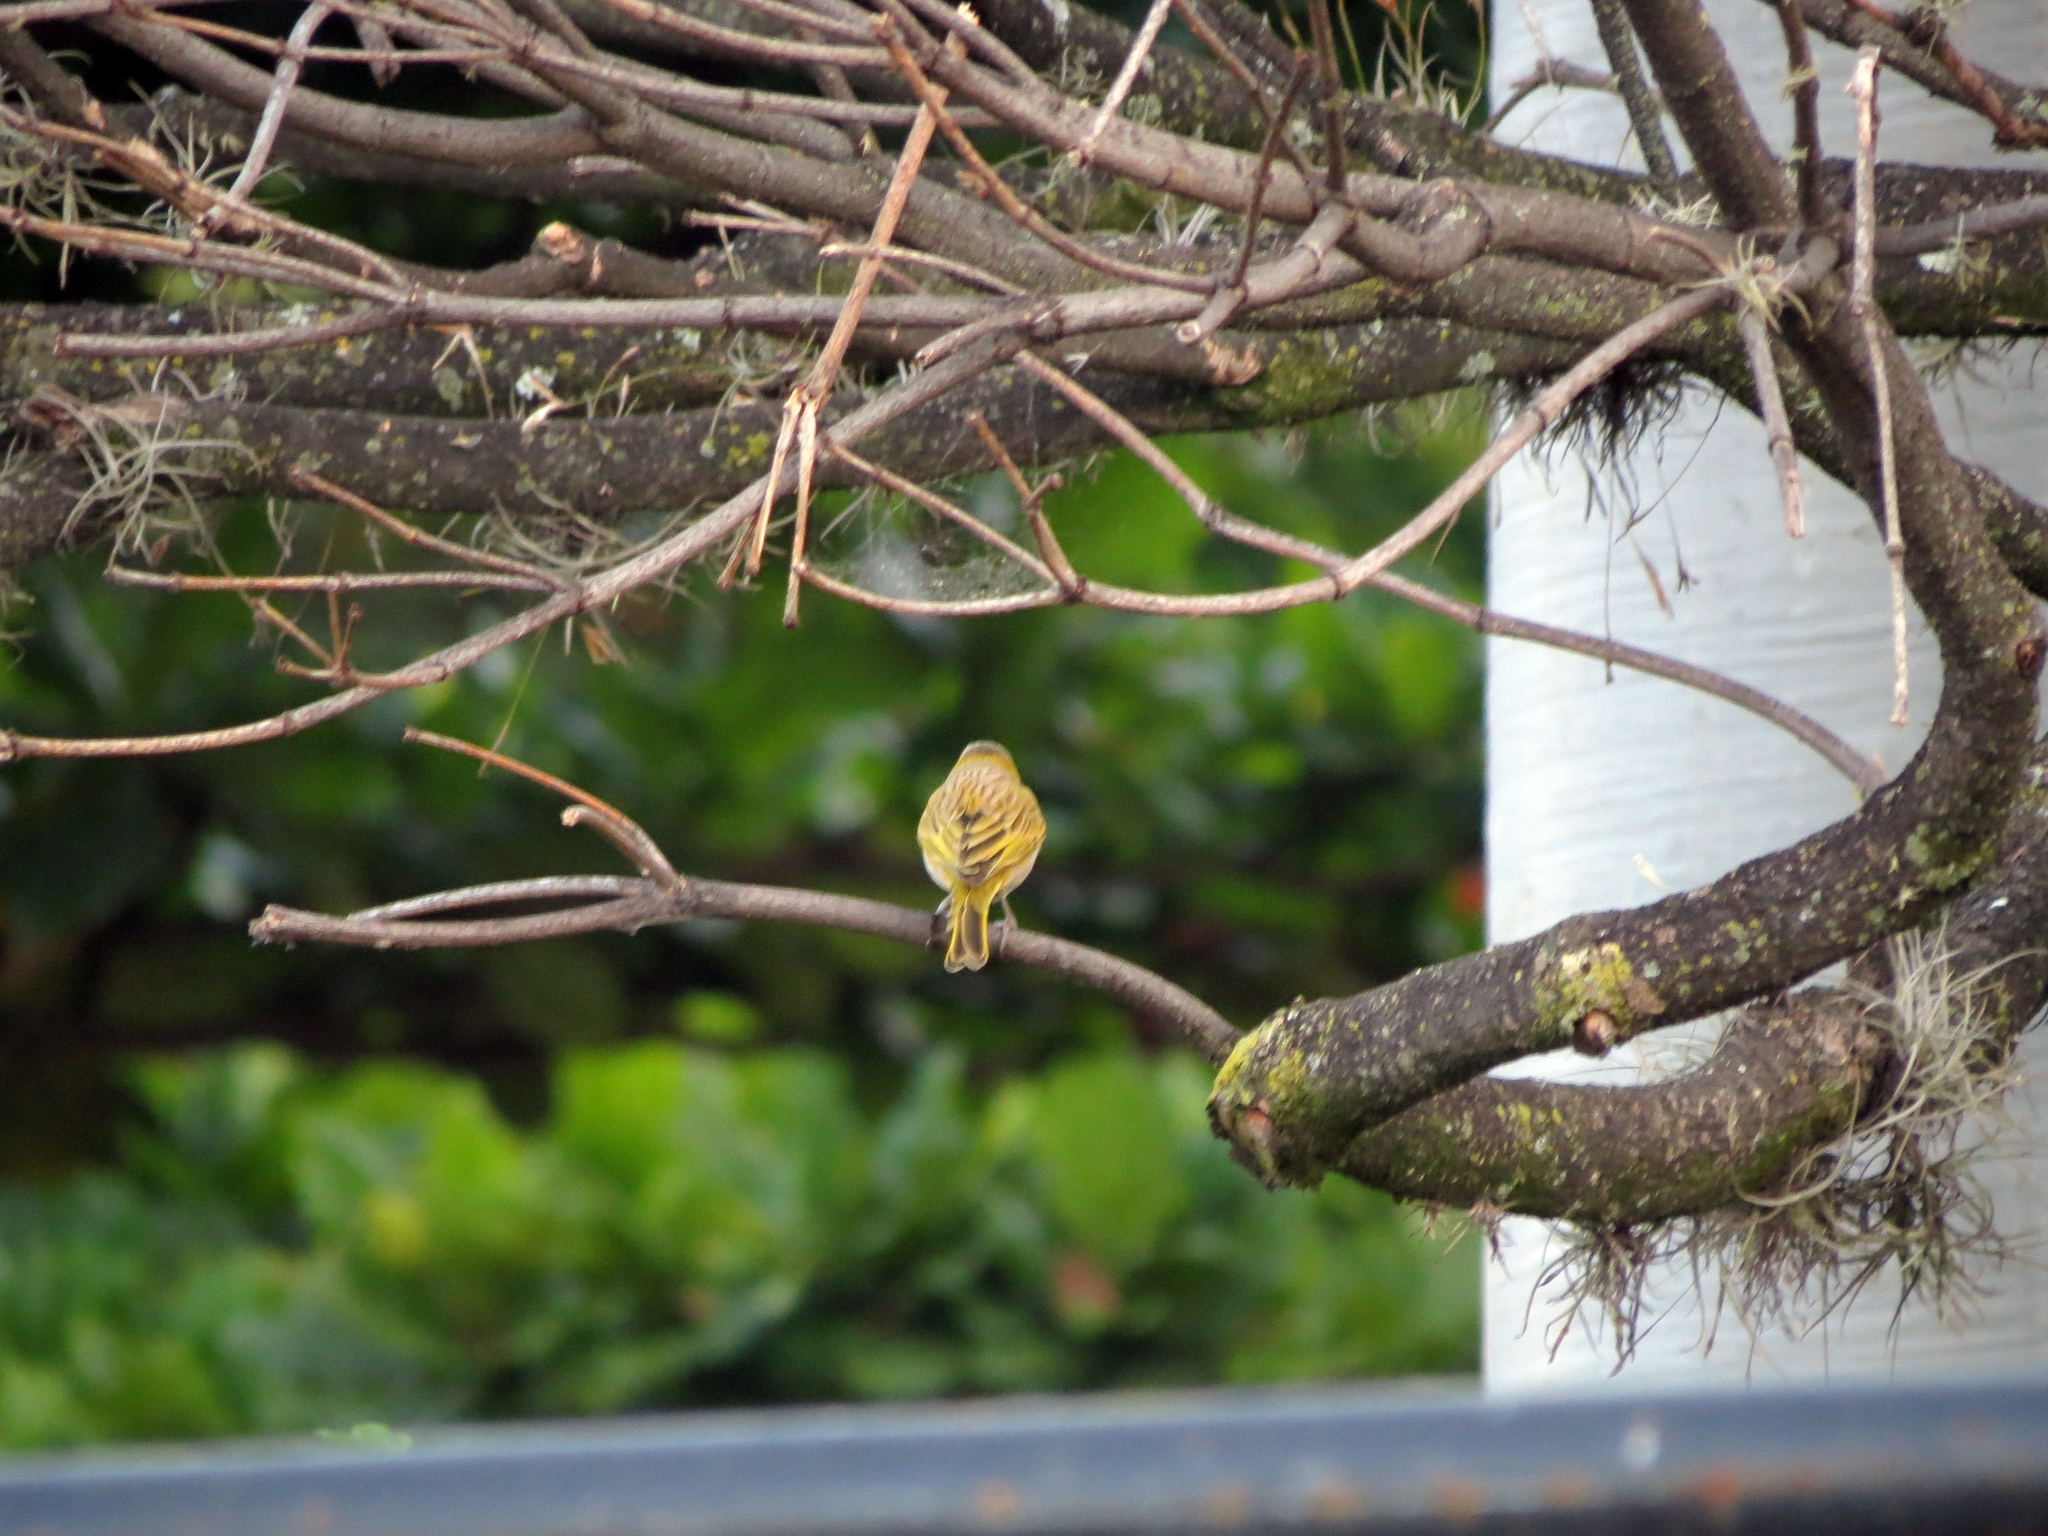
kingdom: Animalia
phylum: Chordata
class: Aves
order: Passeriformes
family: Thraupidae
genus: Sicalis
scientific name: Sicalis flaveola
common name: Saffron finch
